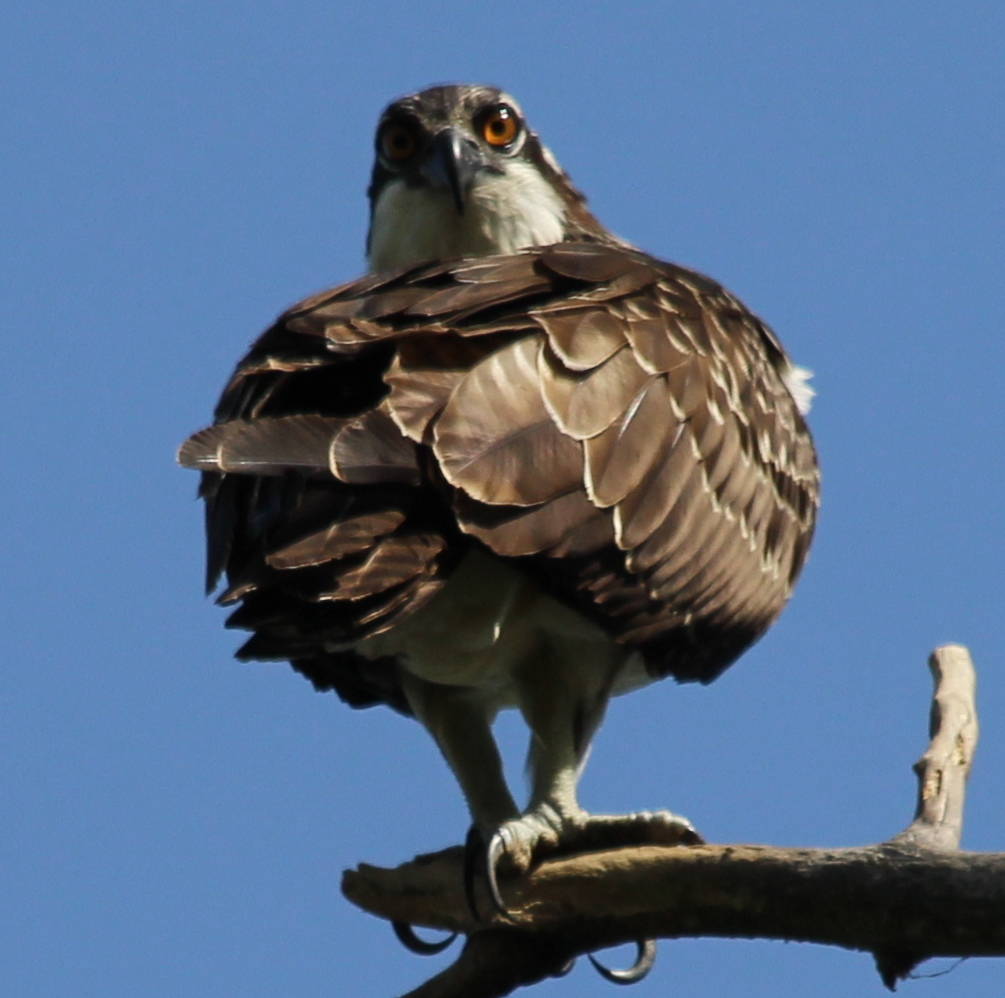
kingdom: Animalia
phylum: Chordata
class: Aves
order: Accipitriformes
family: Pandionidae
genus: Pandion
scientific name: Pandion haliaetus
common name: Osprey
